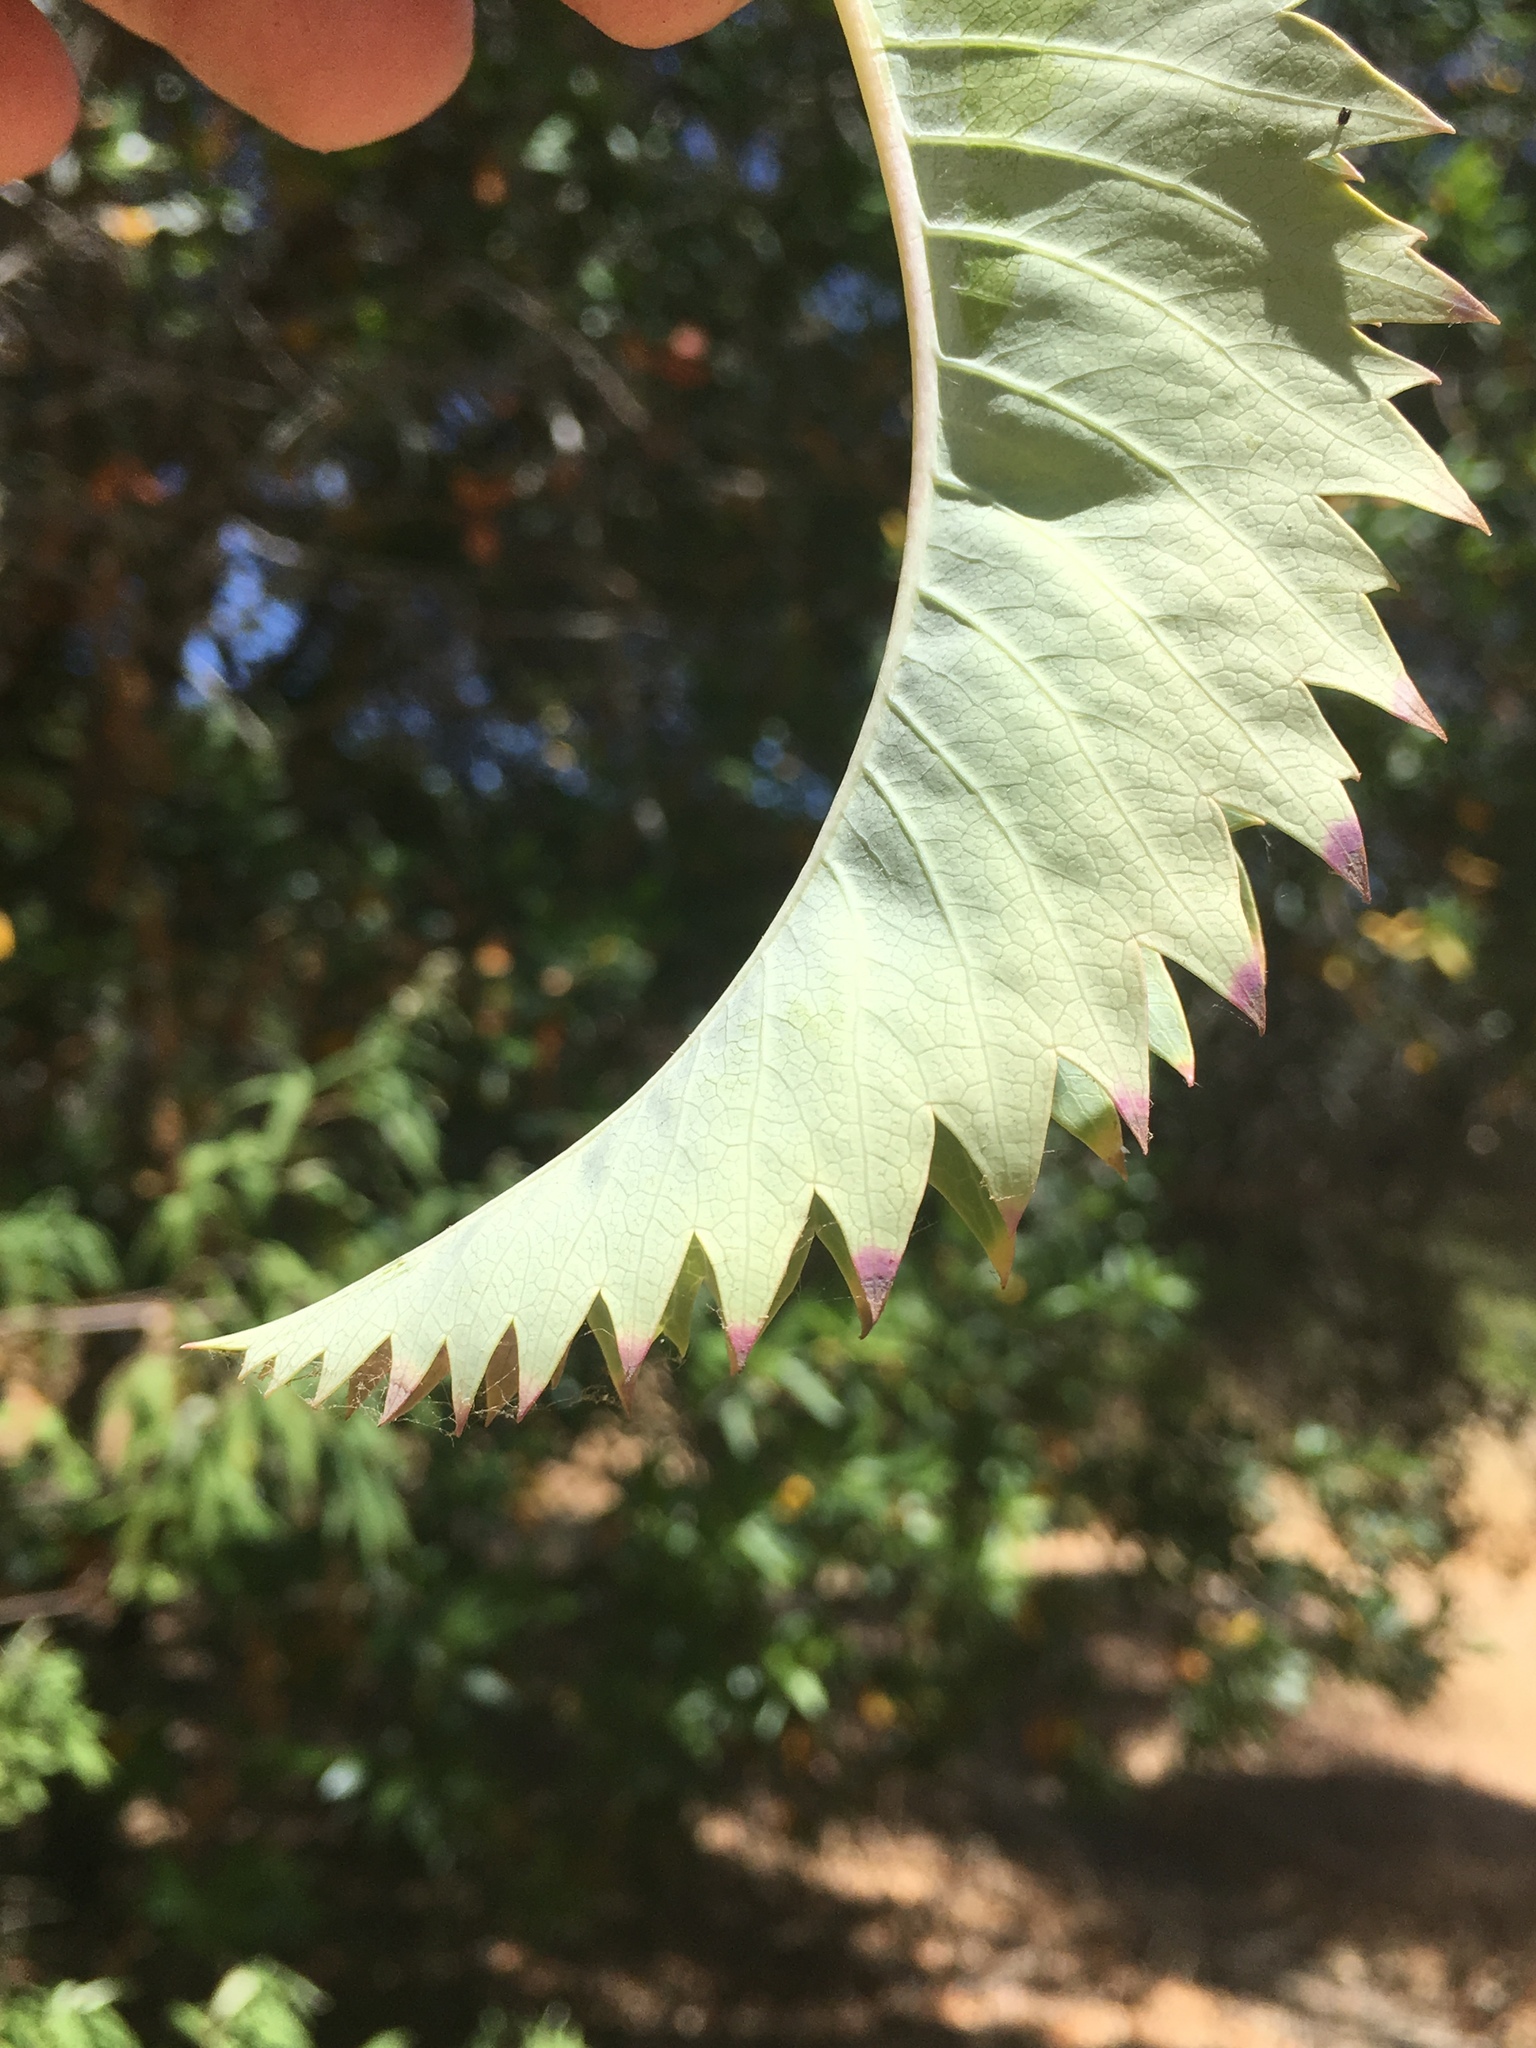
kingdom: Plantae
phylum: Tracheophyta
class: Magnoliopsida
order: Geraniales
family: Melianthaceae
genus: Melianthus
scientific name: Melianthus major
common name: Honey-flower
